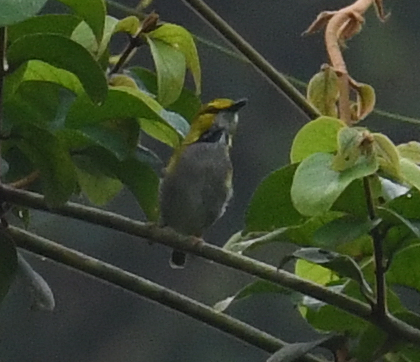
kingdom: Animalia
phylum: Chordata
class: Aves
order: Passeriformes
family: Cisticolidae
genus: Camaroptera
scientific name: Camaroptera superciliaris
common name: Yellow-browed camaroptera
